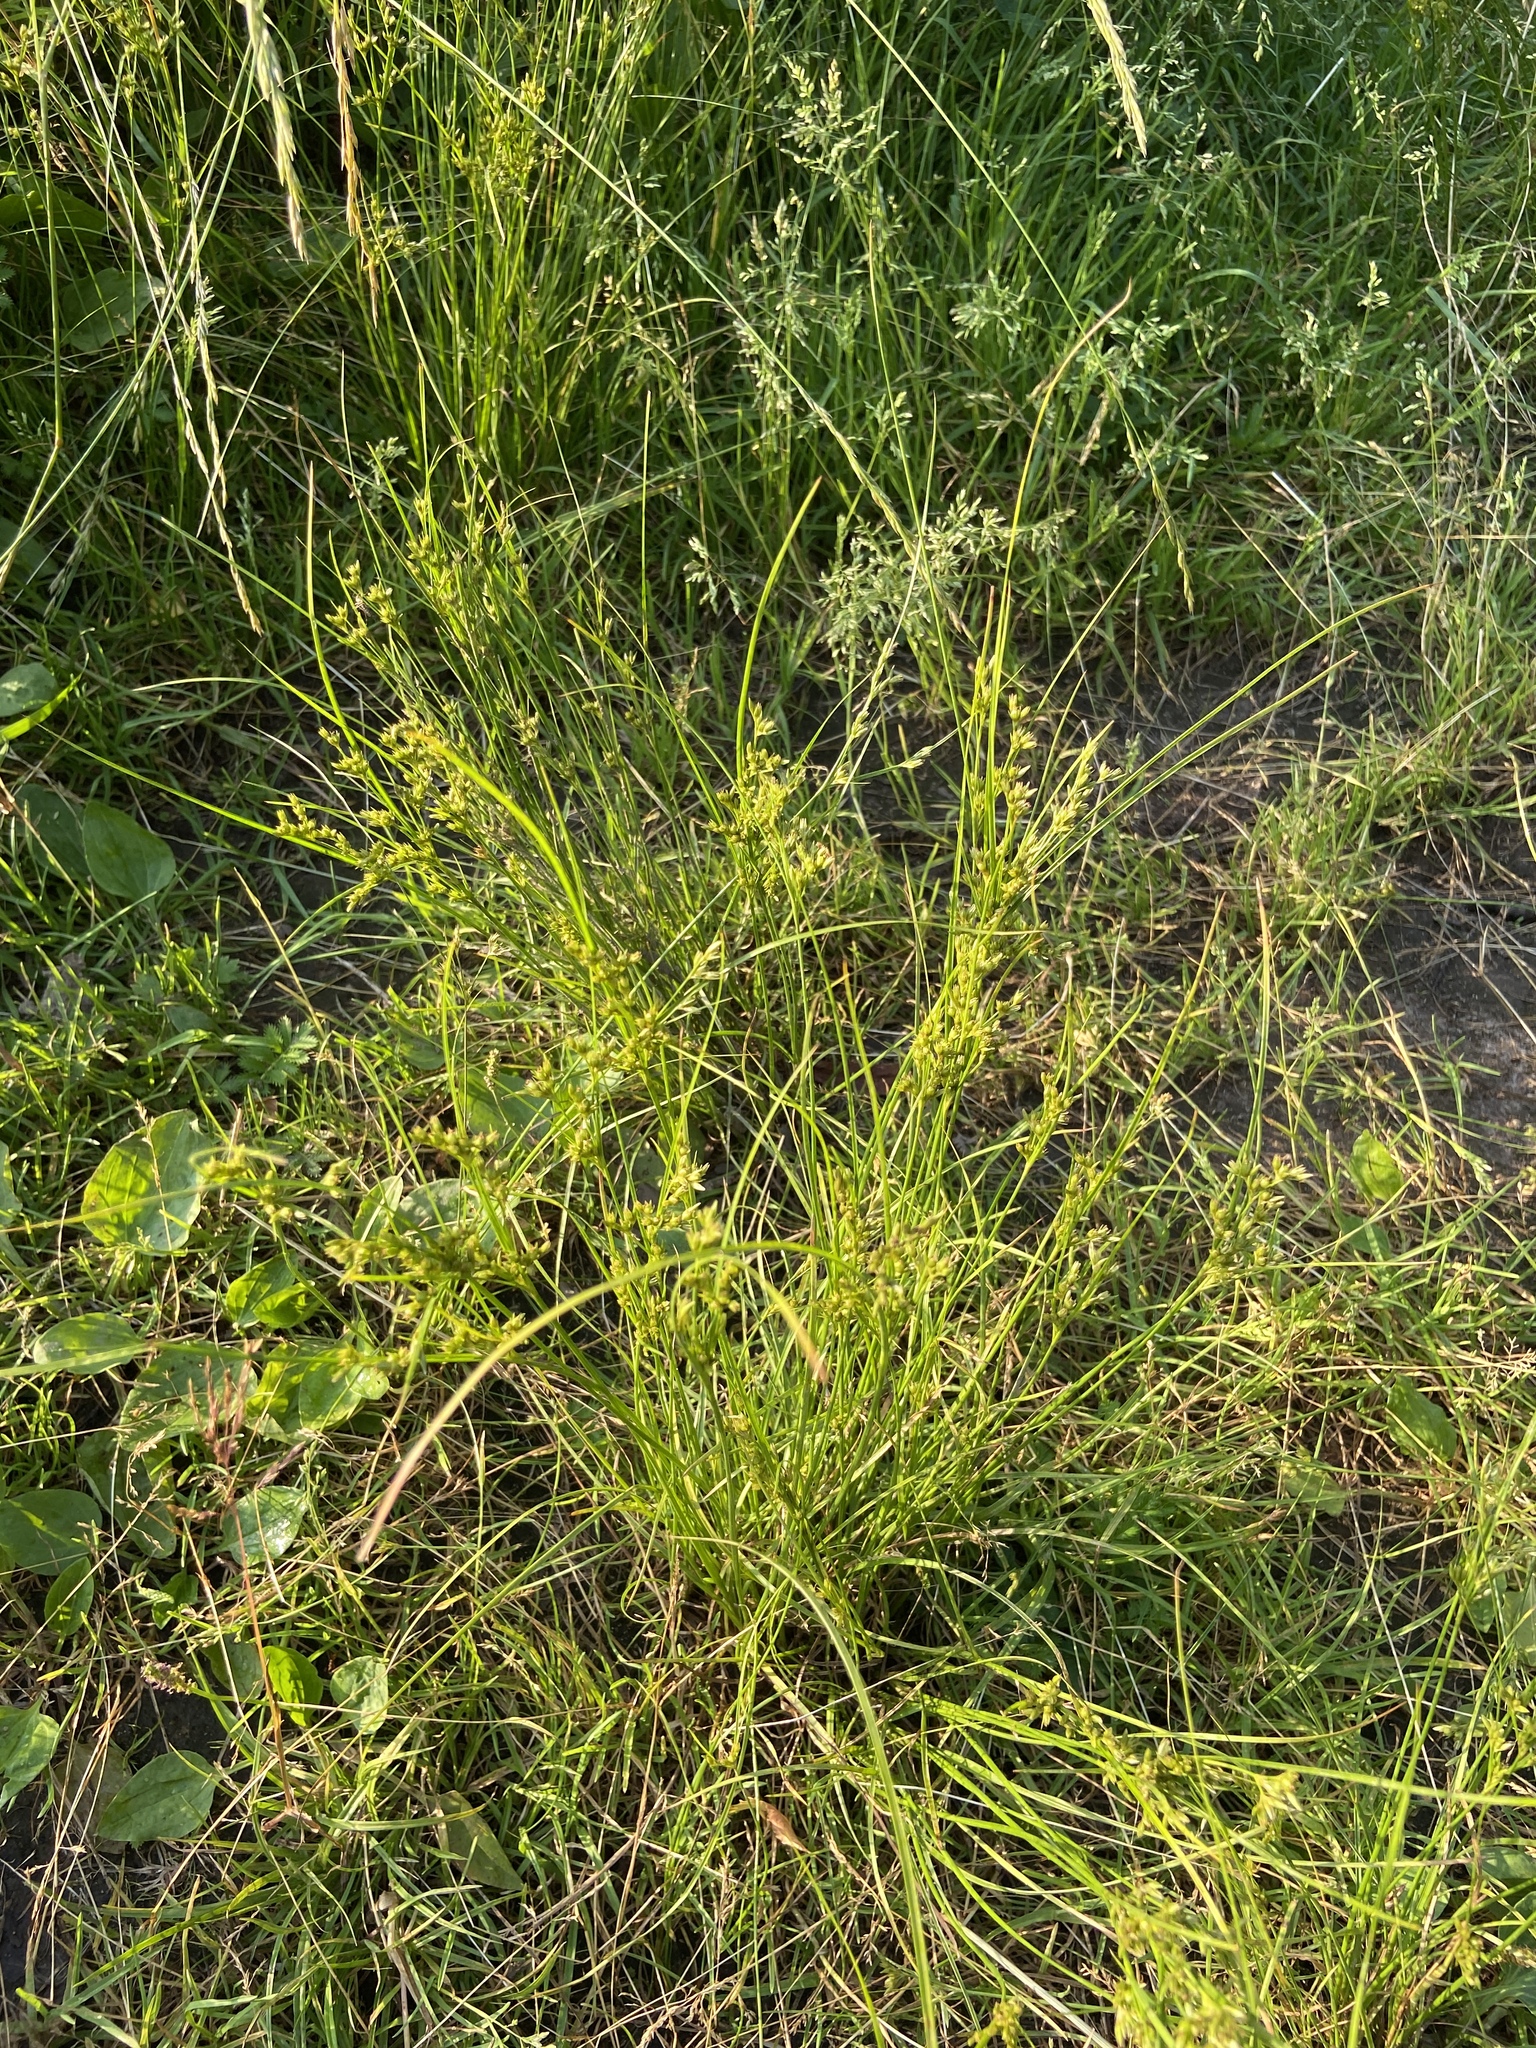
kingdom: Plantae
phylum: Tracheophyta
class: Liliopsida
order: Poales
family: Juncaceae
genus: Juncus
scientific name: Juncus tenuis
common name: Slender rush
